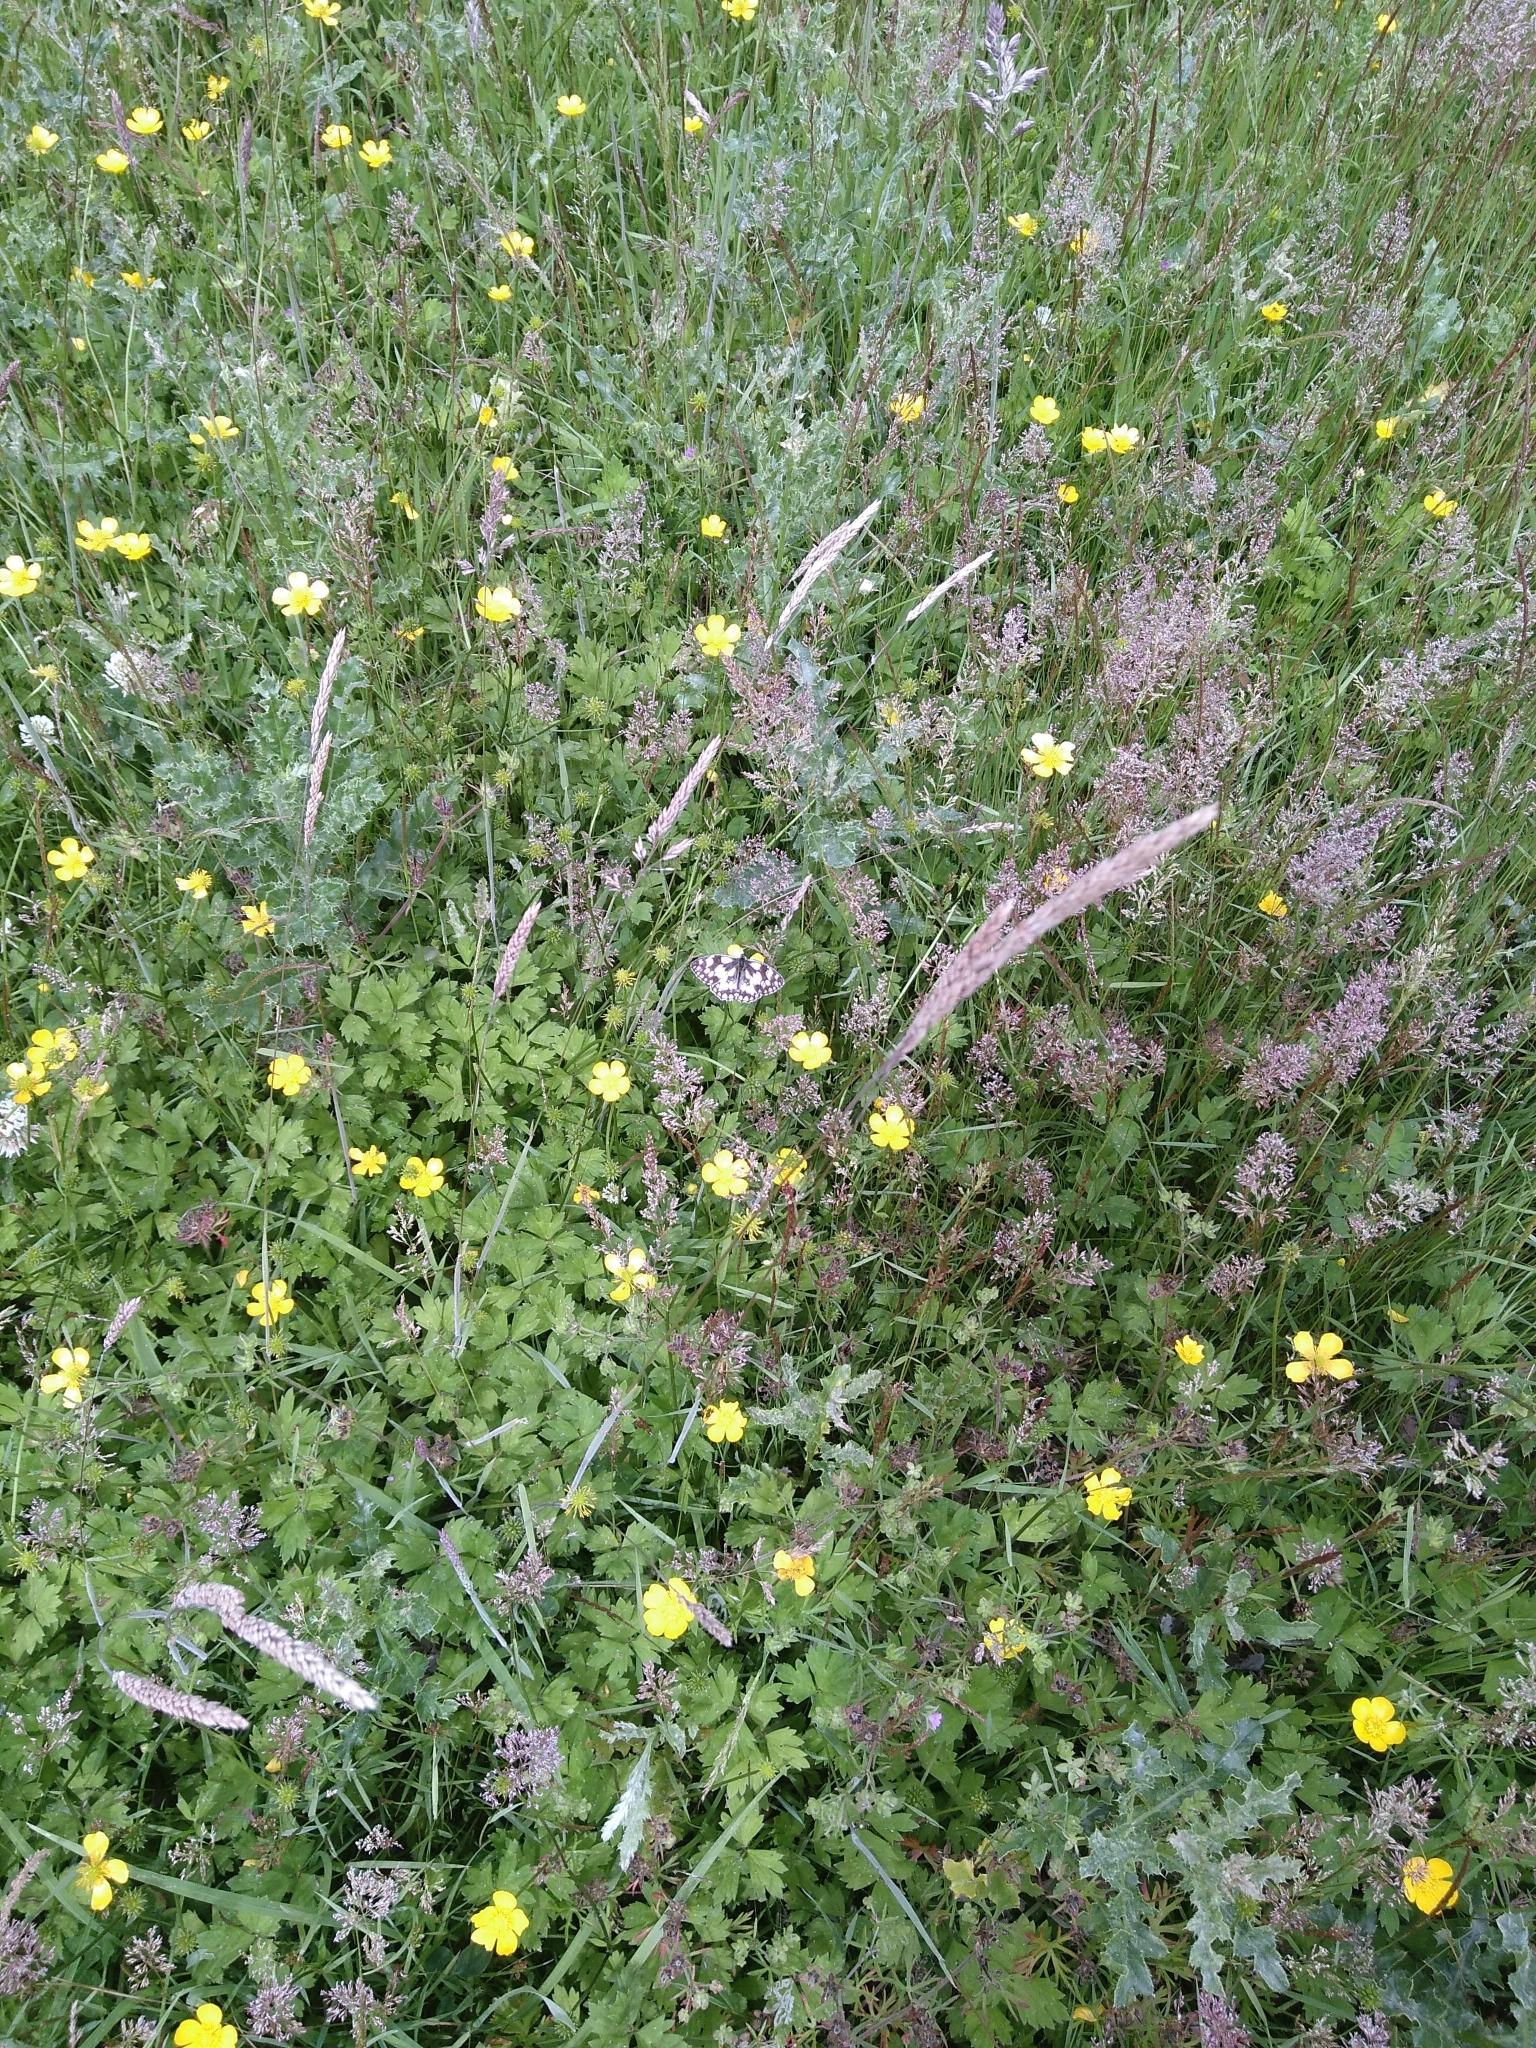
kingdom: Animalia
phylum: Arthropoda
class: Insecta
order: Lepidoptera
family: Nymphalidae
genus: Melanargia
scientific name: Melanargia galathea
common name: Marbled white
